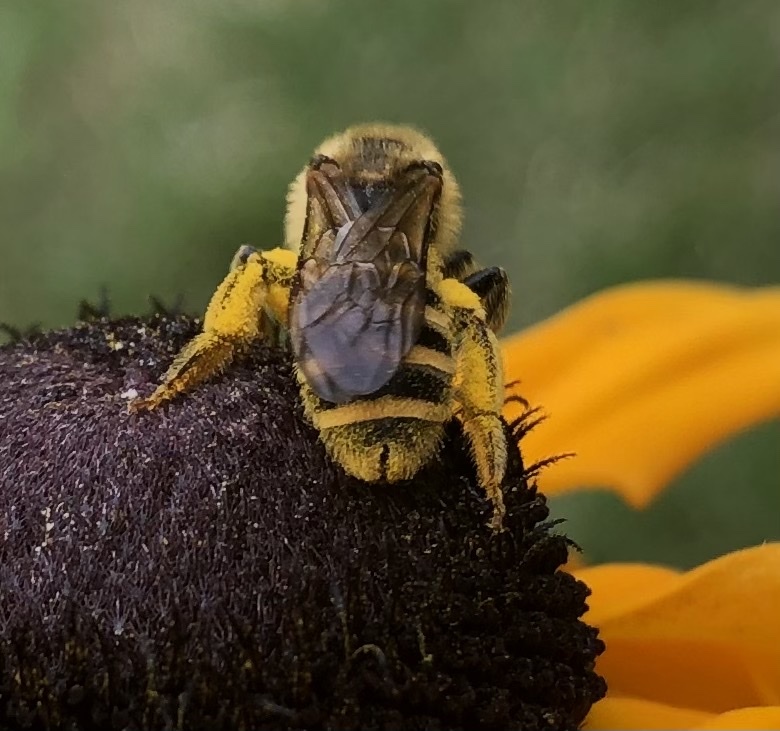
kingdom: Animalia
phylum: Arthropoda
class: Insecta
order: Hymenoptera
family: Halictidae
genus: Halictus
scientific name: Halictus scabiosae
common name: Great banded furrow bee
